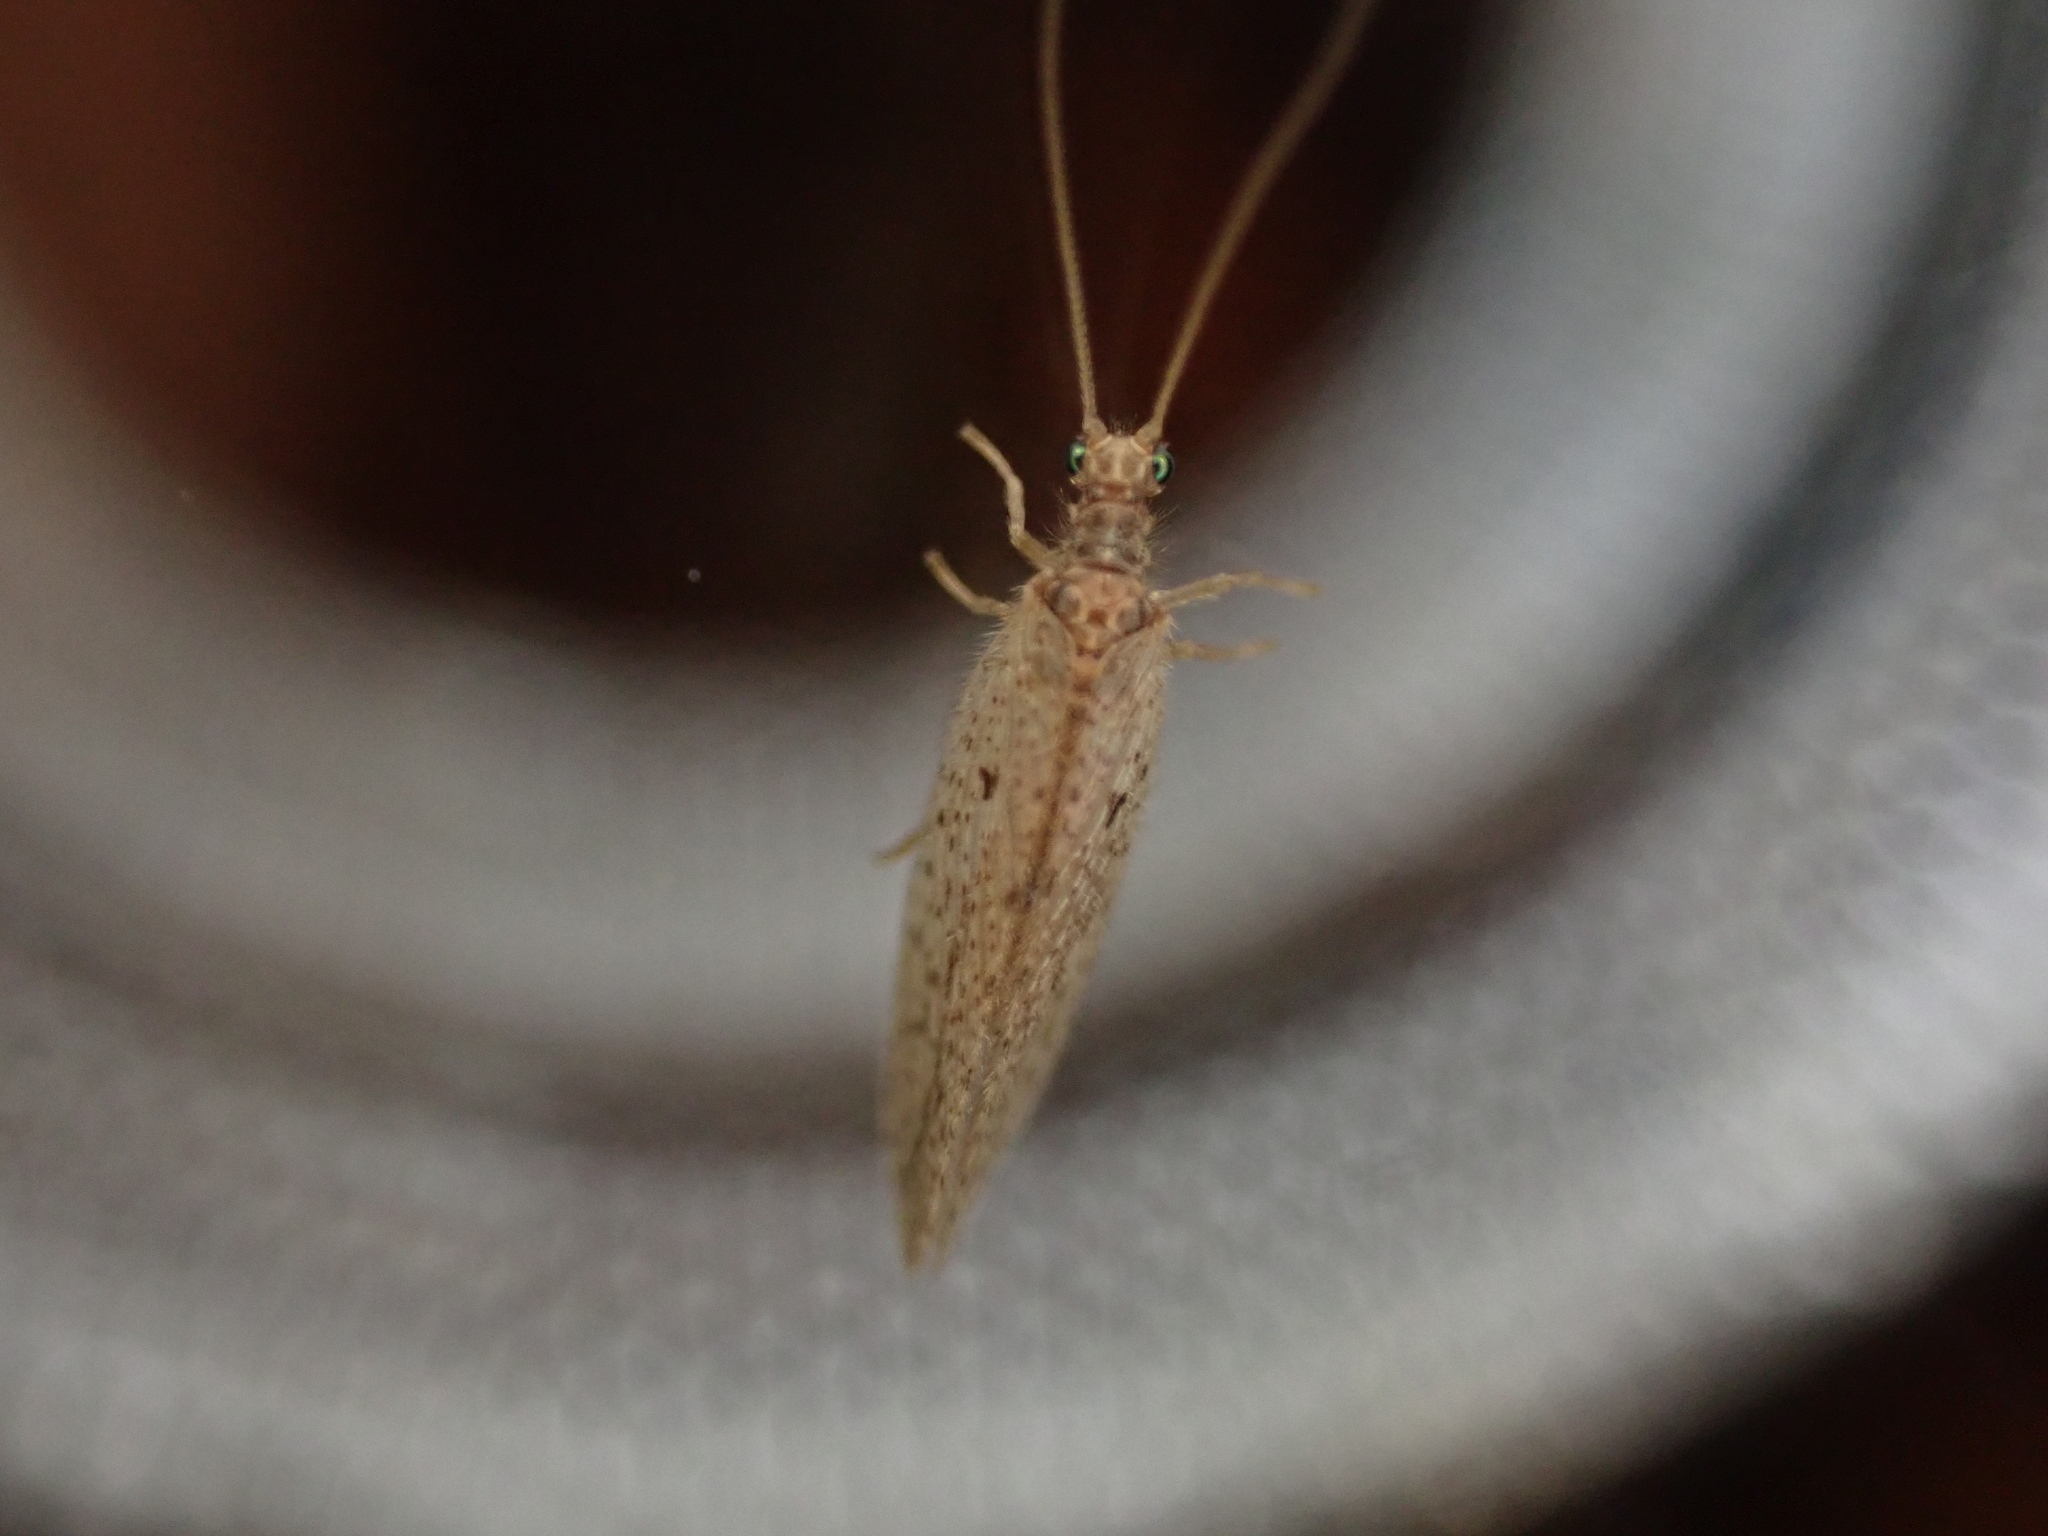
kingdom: Animalia
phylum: Arthropoda
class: Insecta
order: Neuroptera
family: Hemerobiidae
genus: Micromus
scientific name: Micromus subanticus
